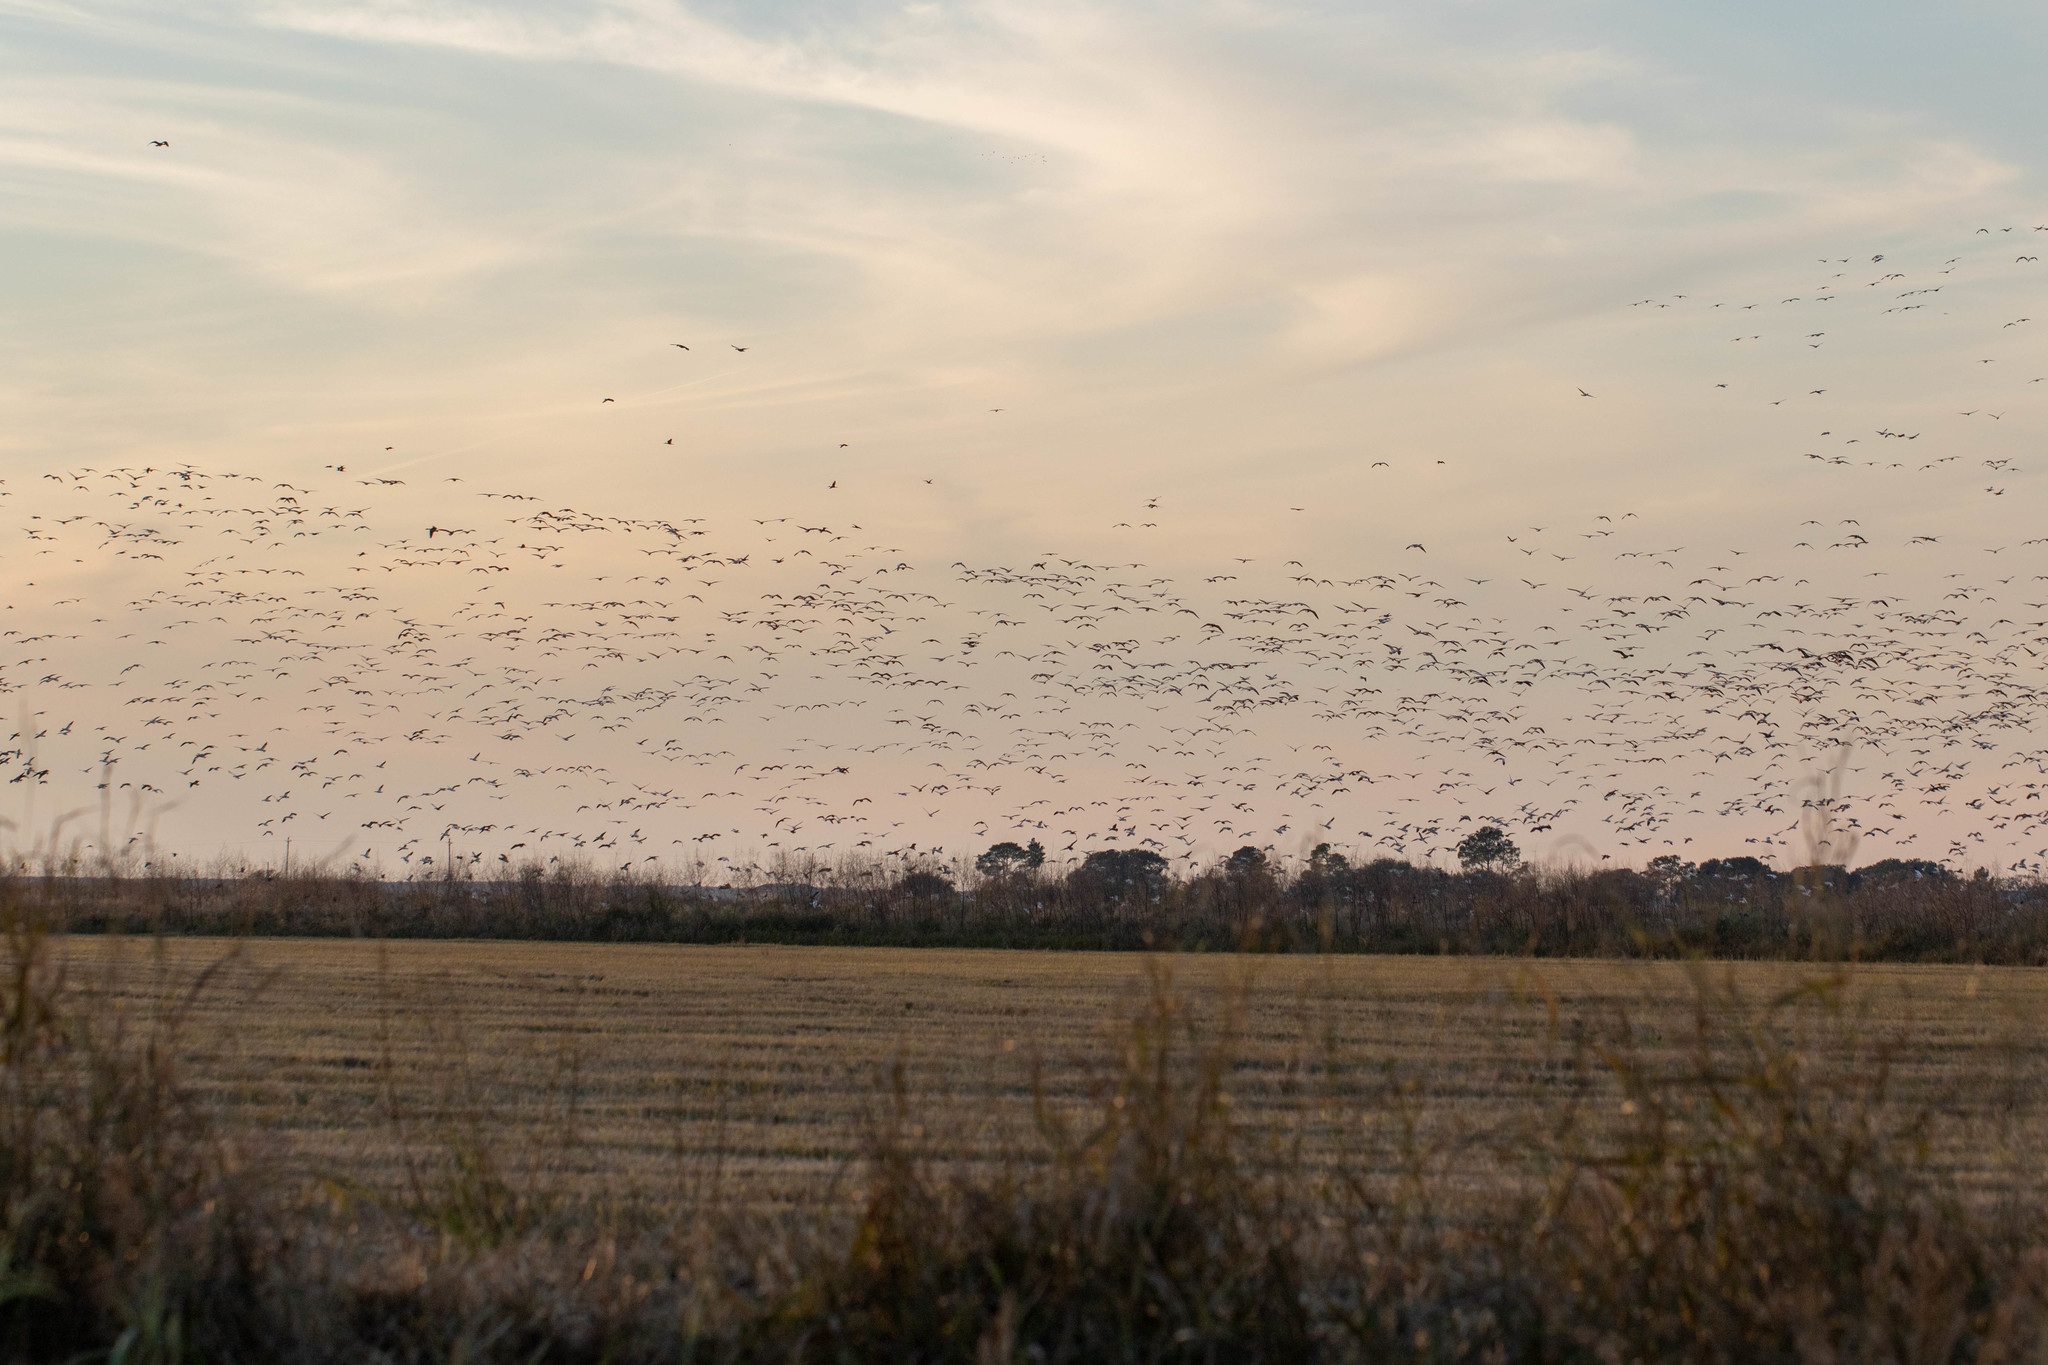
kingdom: Animalia
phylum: Chordata
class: Aves
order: Anseriformes
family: Anatidae
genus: Anser
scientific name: Anser caerulescens
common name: Snow goose
